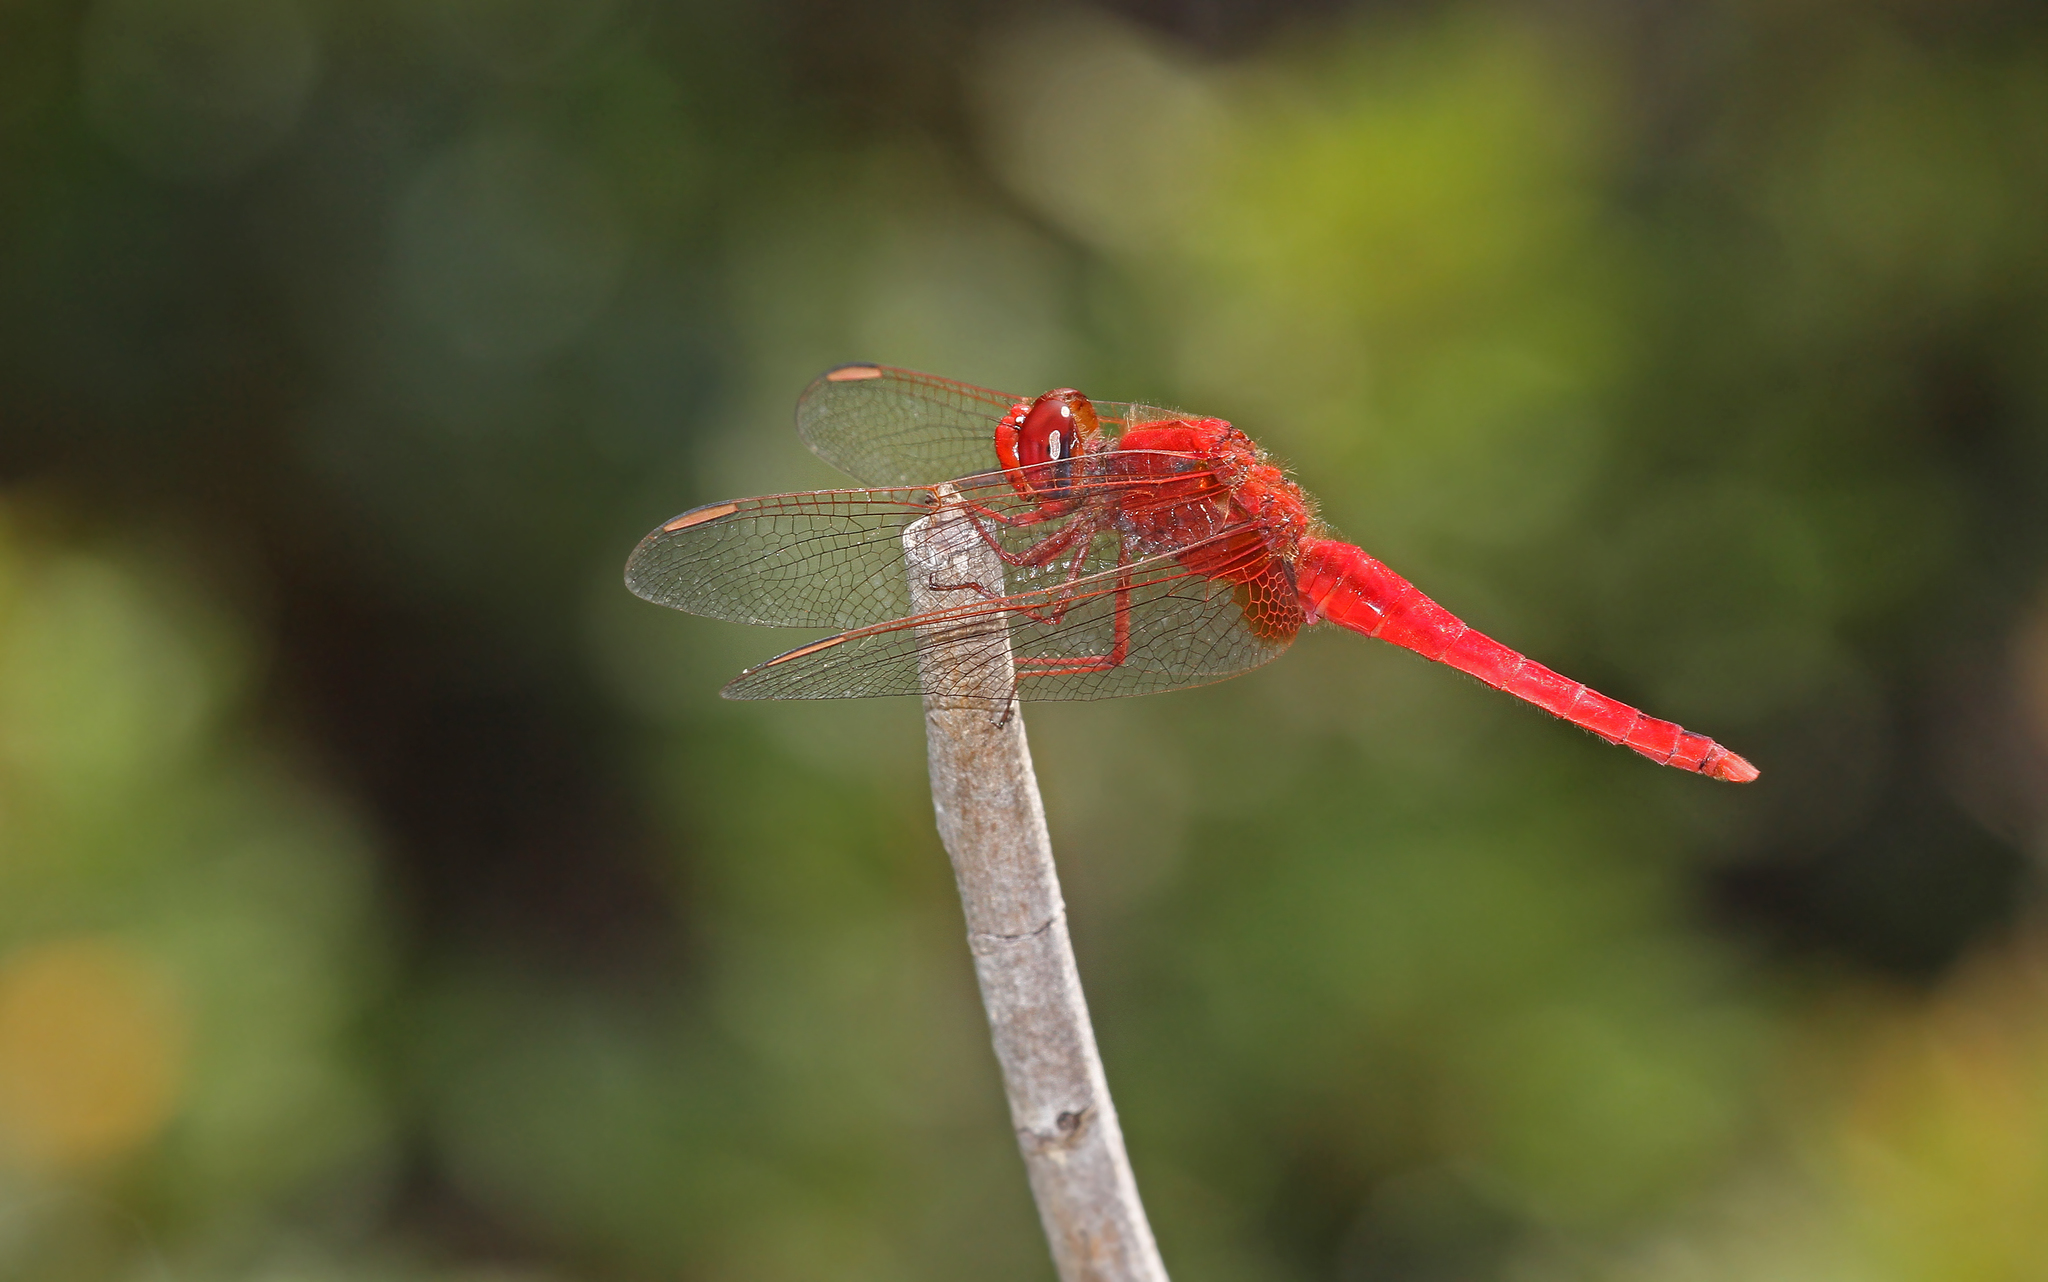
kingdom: Animalia
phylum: Arthropoda
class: Insecta
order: Odonata
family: Libellulidae
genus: Crocothemis
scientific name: Crocothemis erythraea
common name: Scarlet dragonfly
